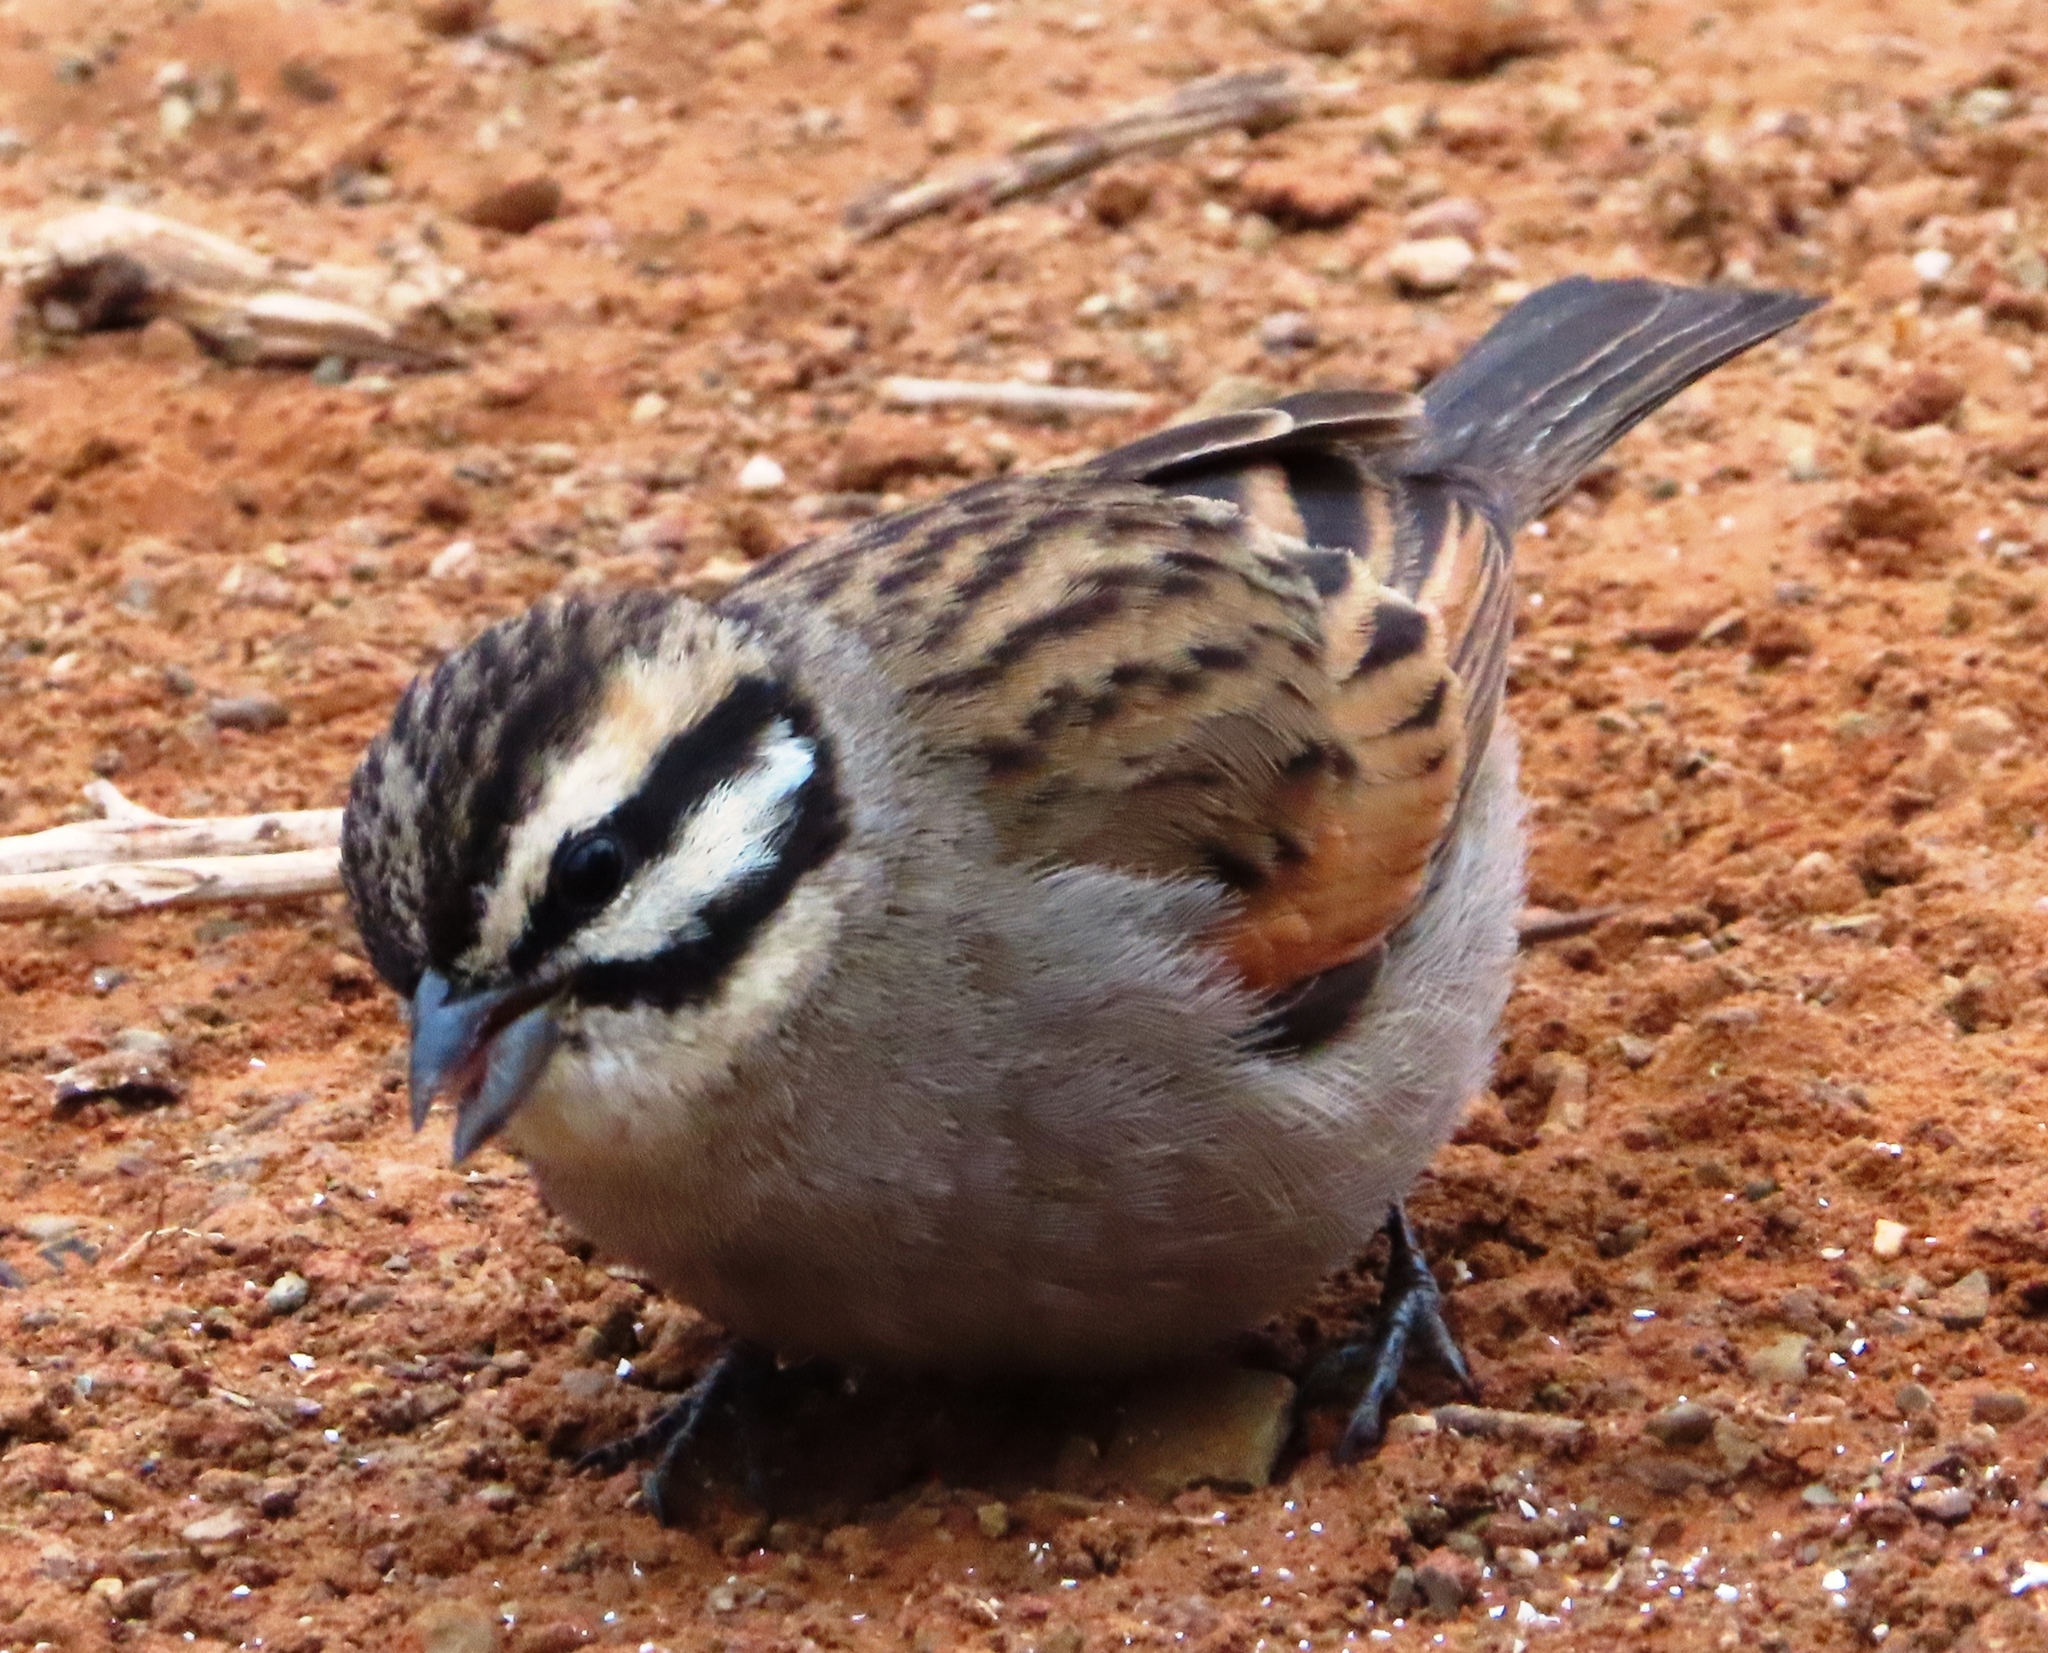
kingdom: Animalia
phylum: Chordata
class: Aves
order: Passeriformes
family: Emberizidae
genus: Emberiza
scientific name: Emberiza capensis
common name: Cape bunting
